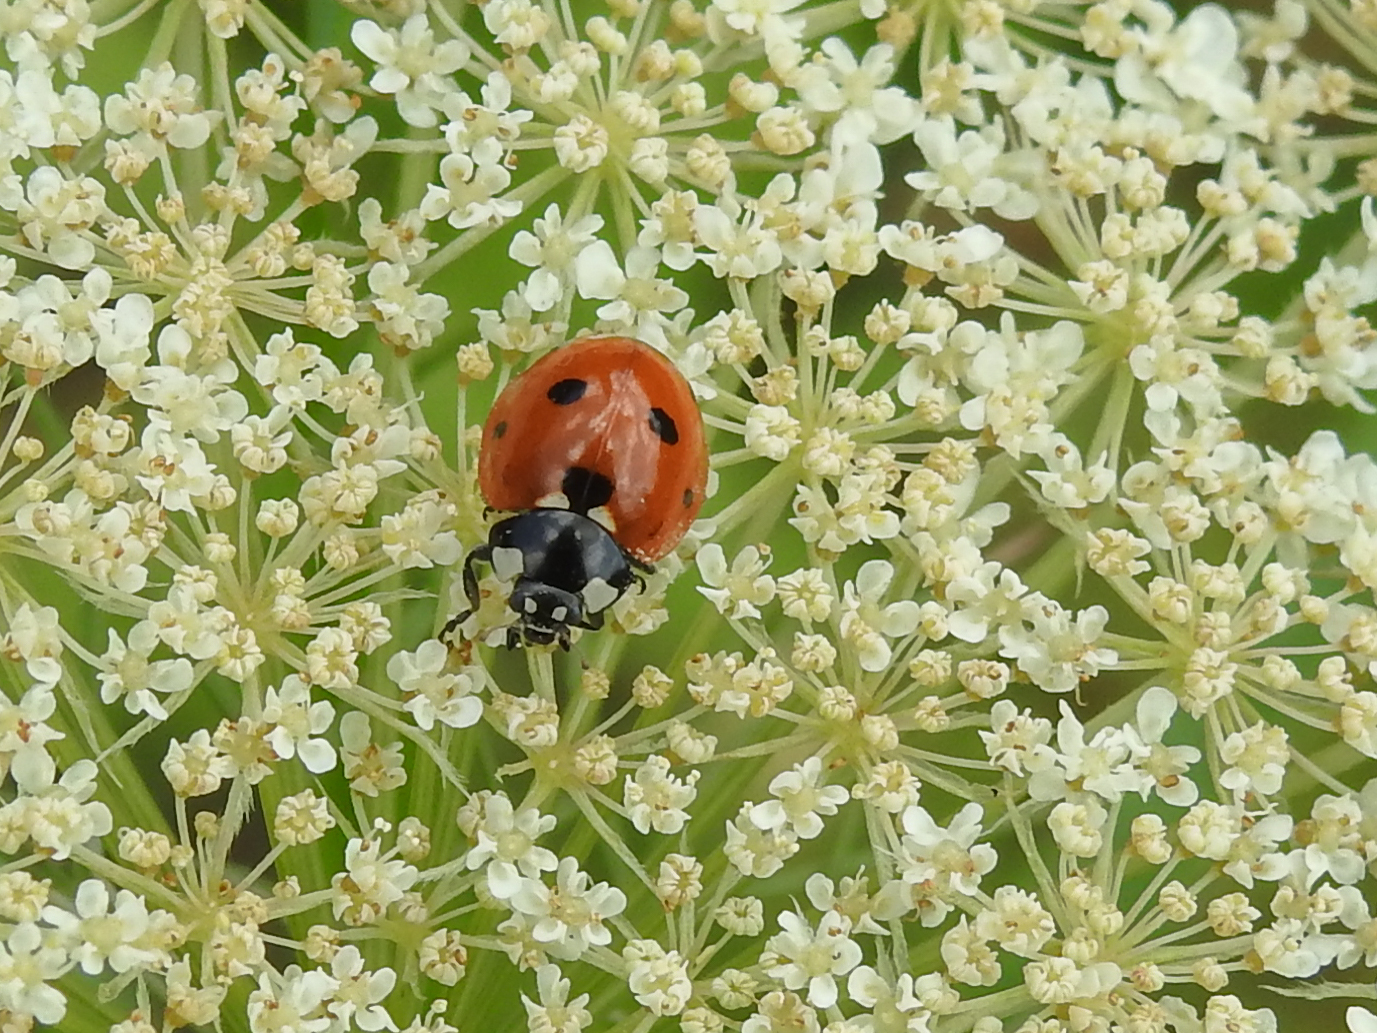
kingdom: Animalia
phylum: Arthropoda
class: Insecta
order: Coleoptera
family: Coccinellidae
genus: Coccinella
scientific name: Coccinella septempunctata
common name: Sevenspotted lady beetle
